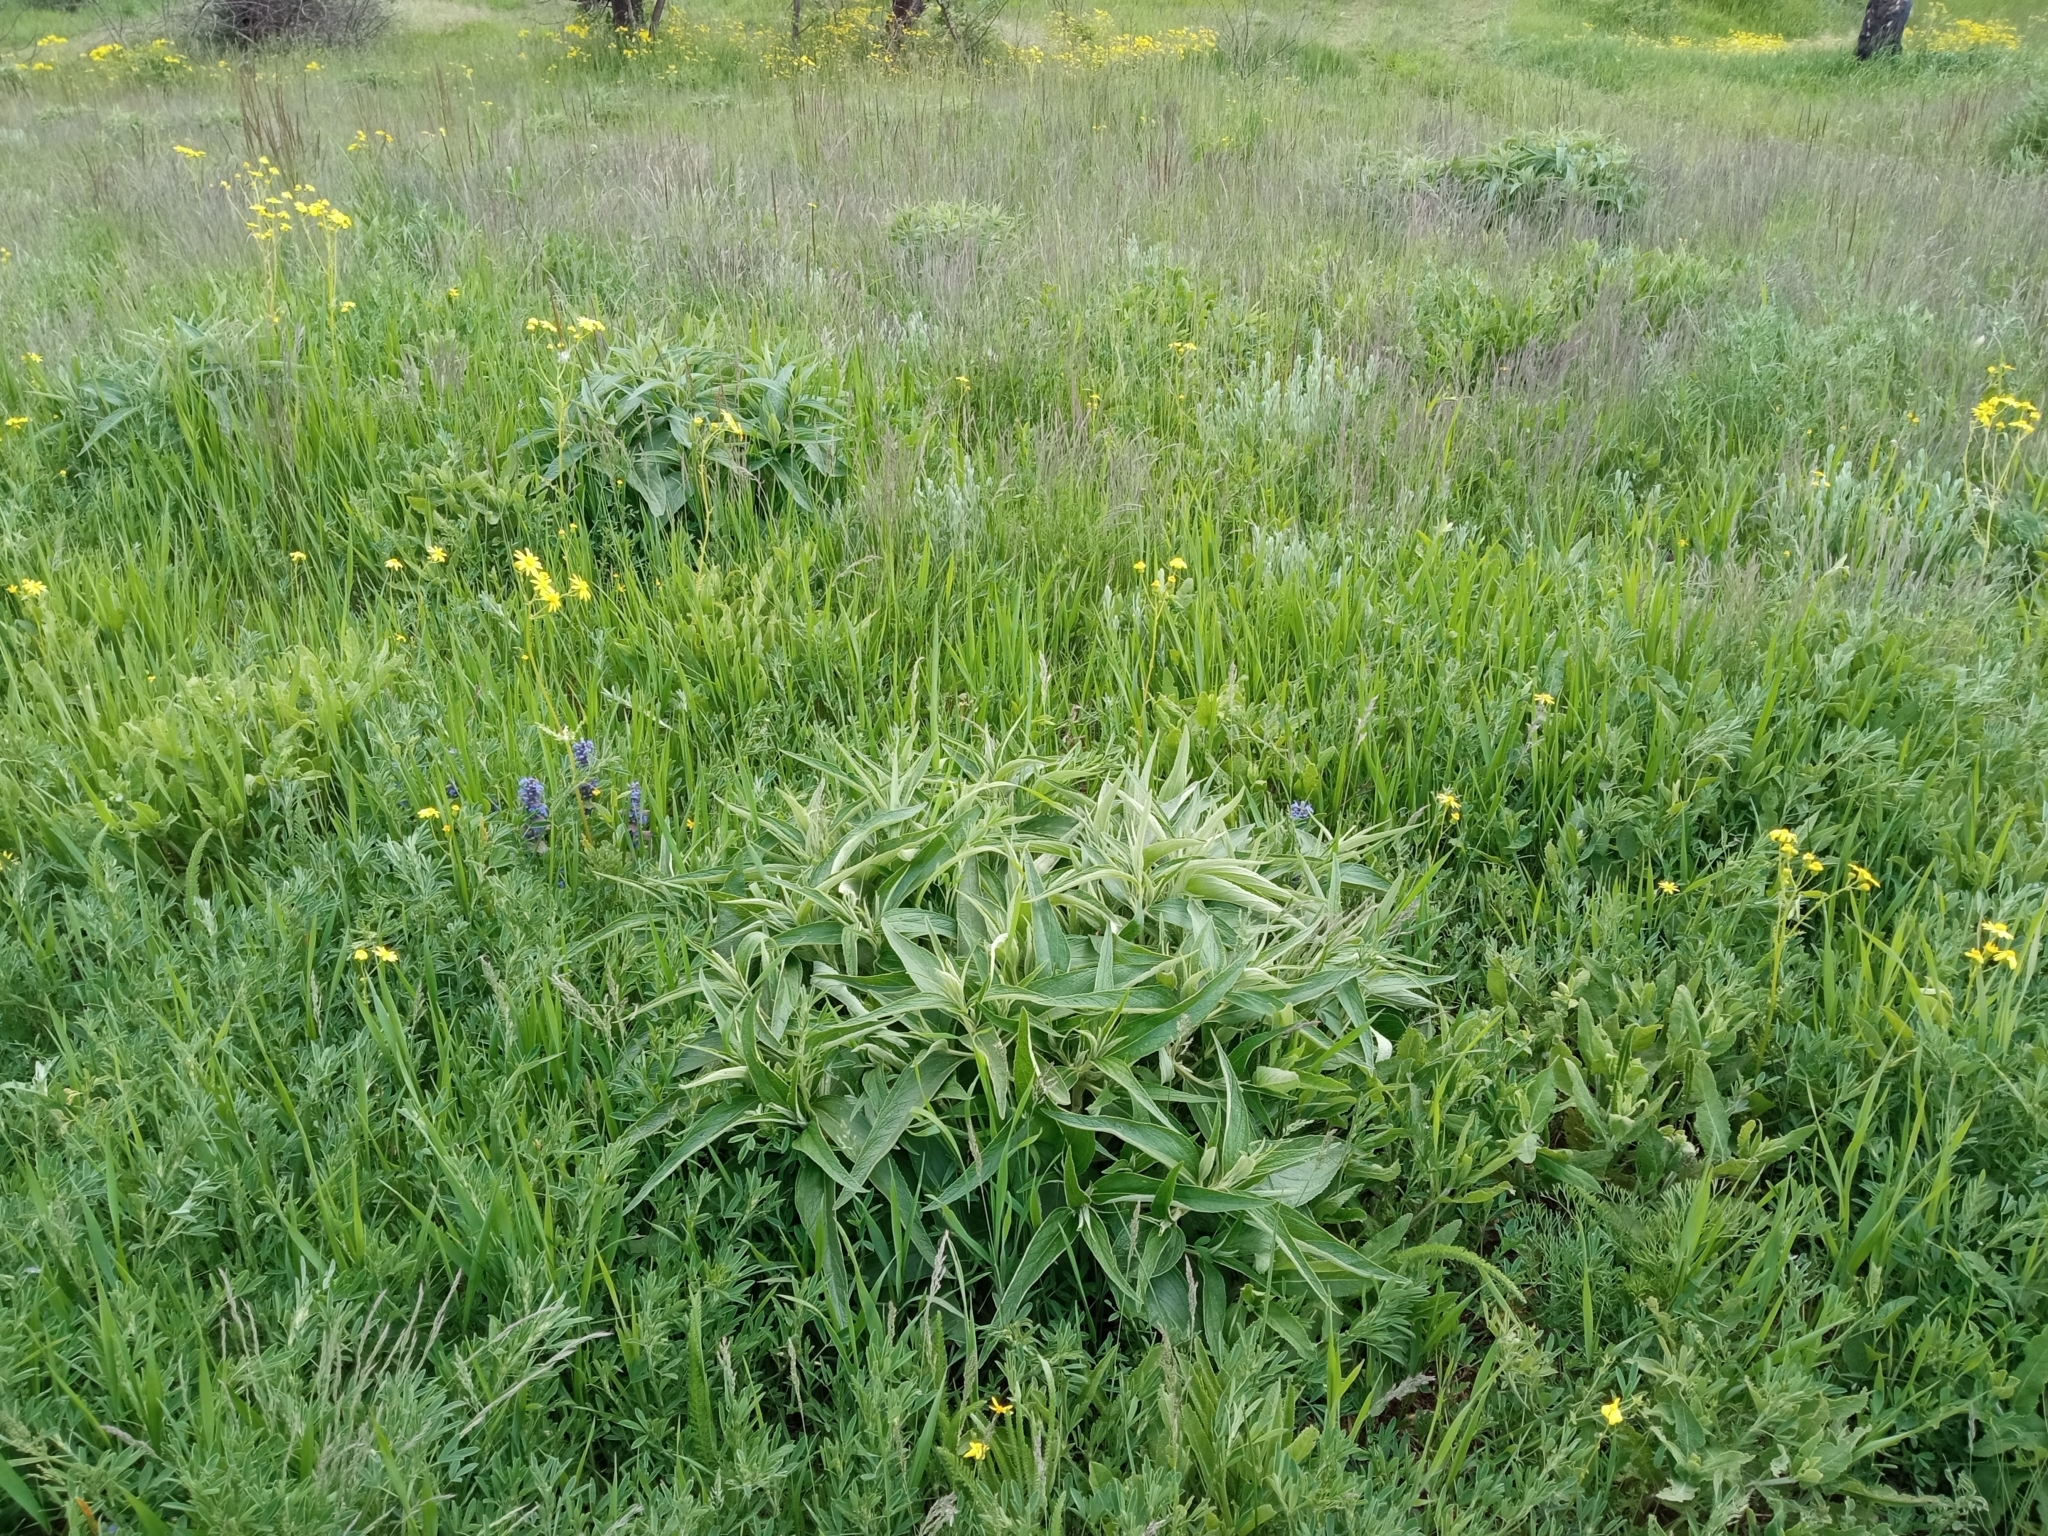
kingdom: Plantae
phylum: Tracheophyta
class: Magnoliopsida
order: Lamiales
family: Lamiaceae
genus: Phlomis
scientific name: Phlomis herba-venti
